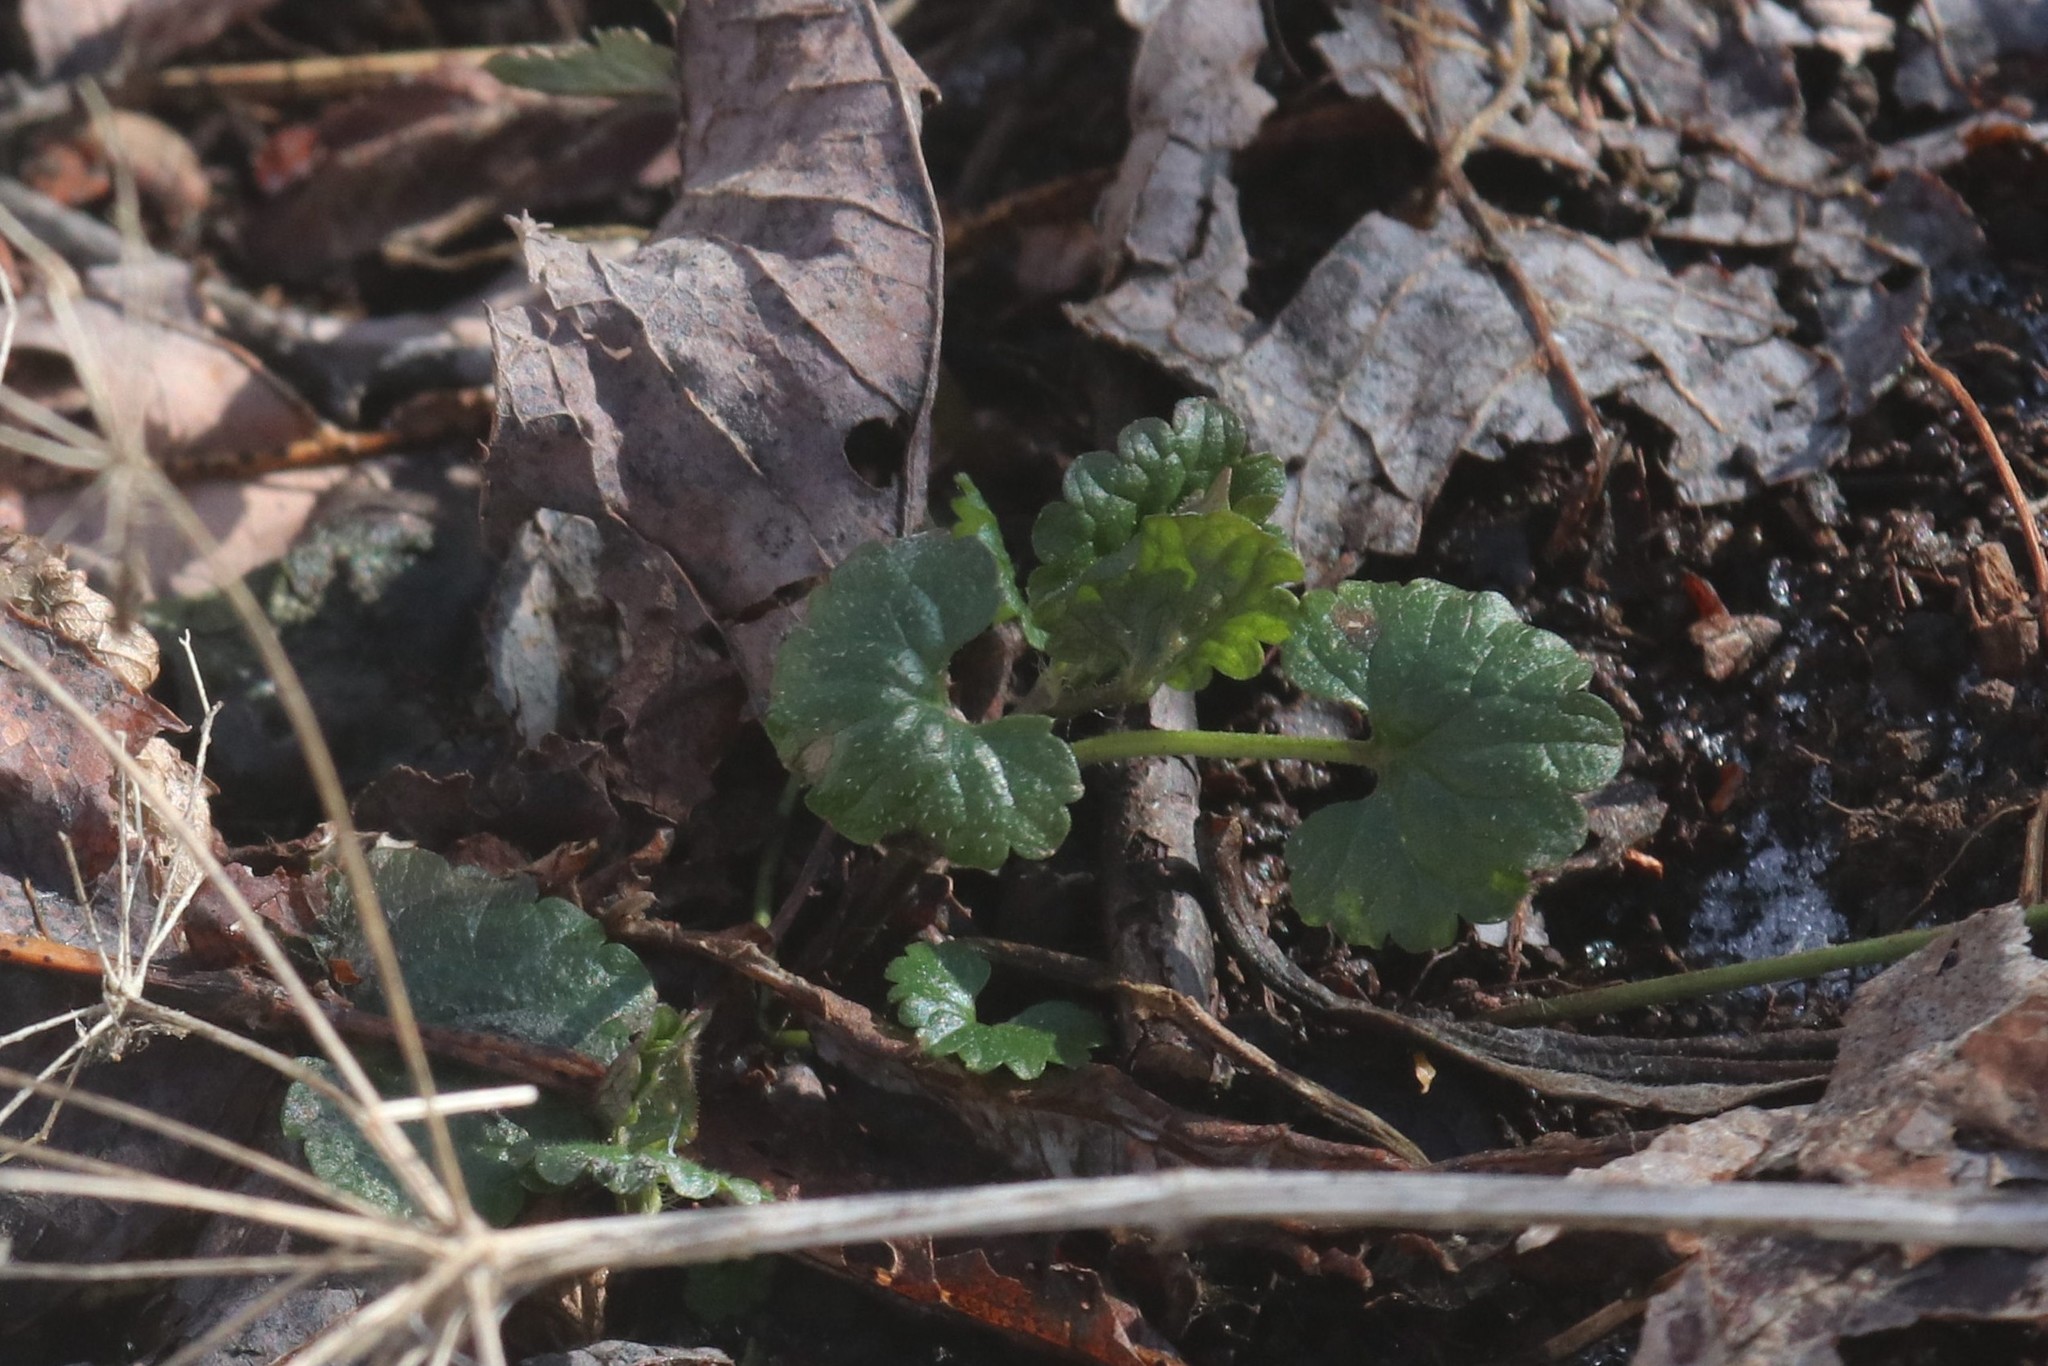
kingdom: Plantae
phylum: Tracheophyta
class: Magnoliopsida
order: Lamiales
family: Lamiaceae
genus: Glechoma
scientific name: Glechoma hederacea
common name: Ground ivy
